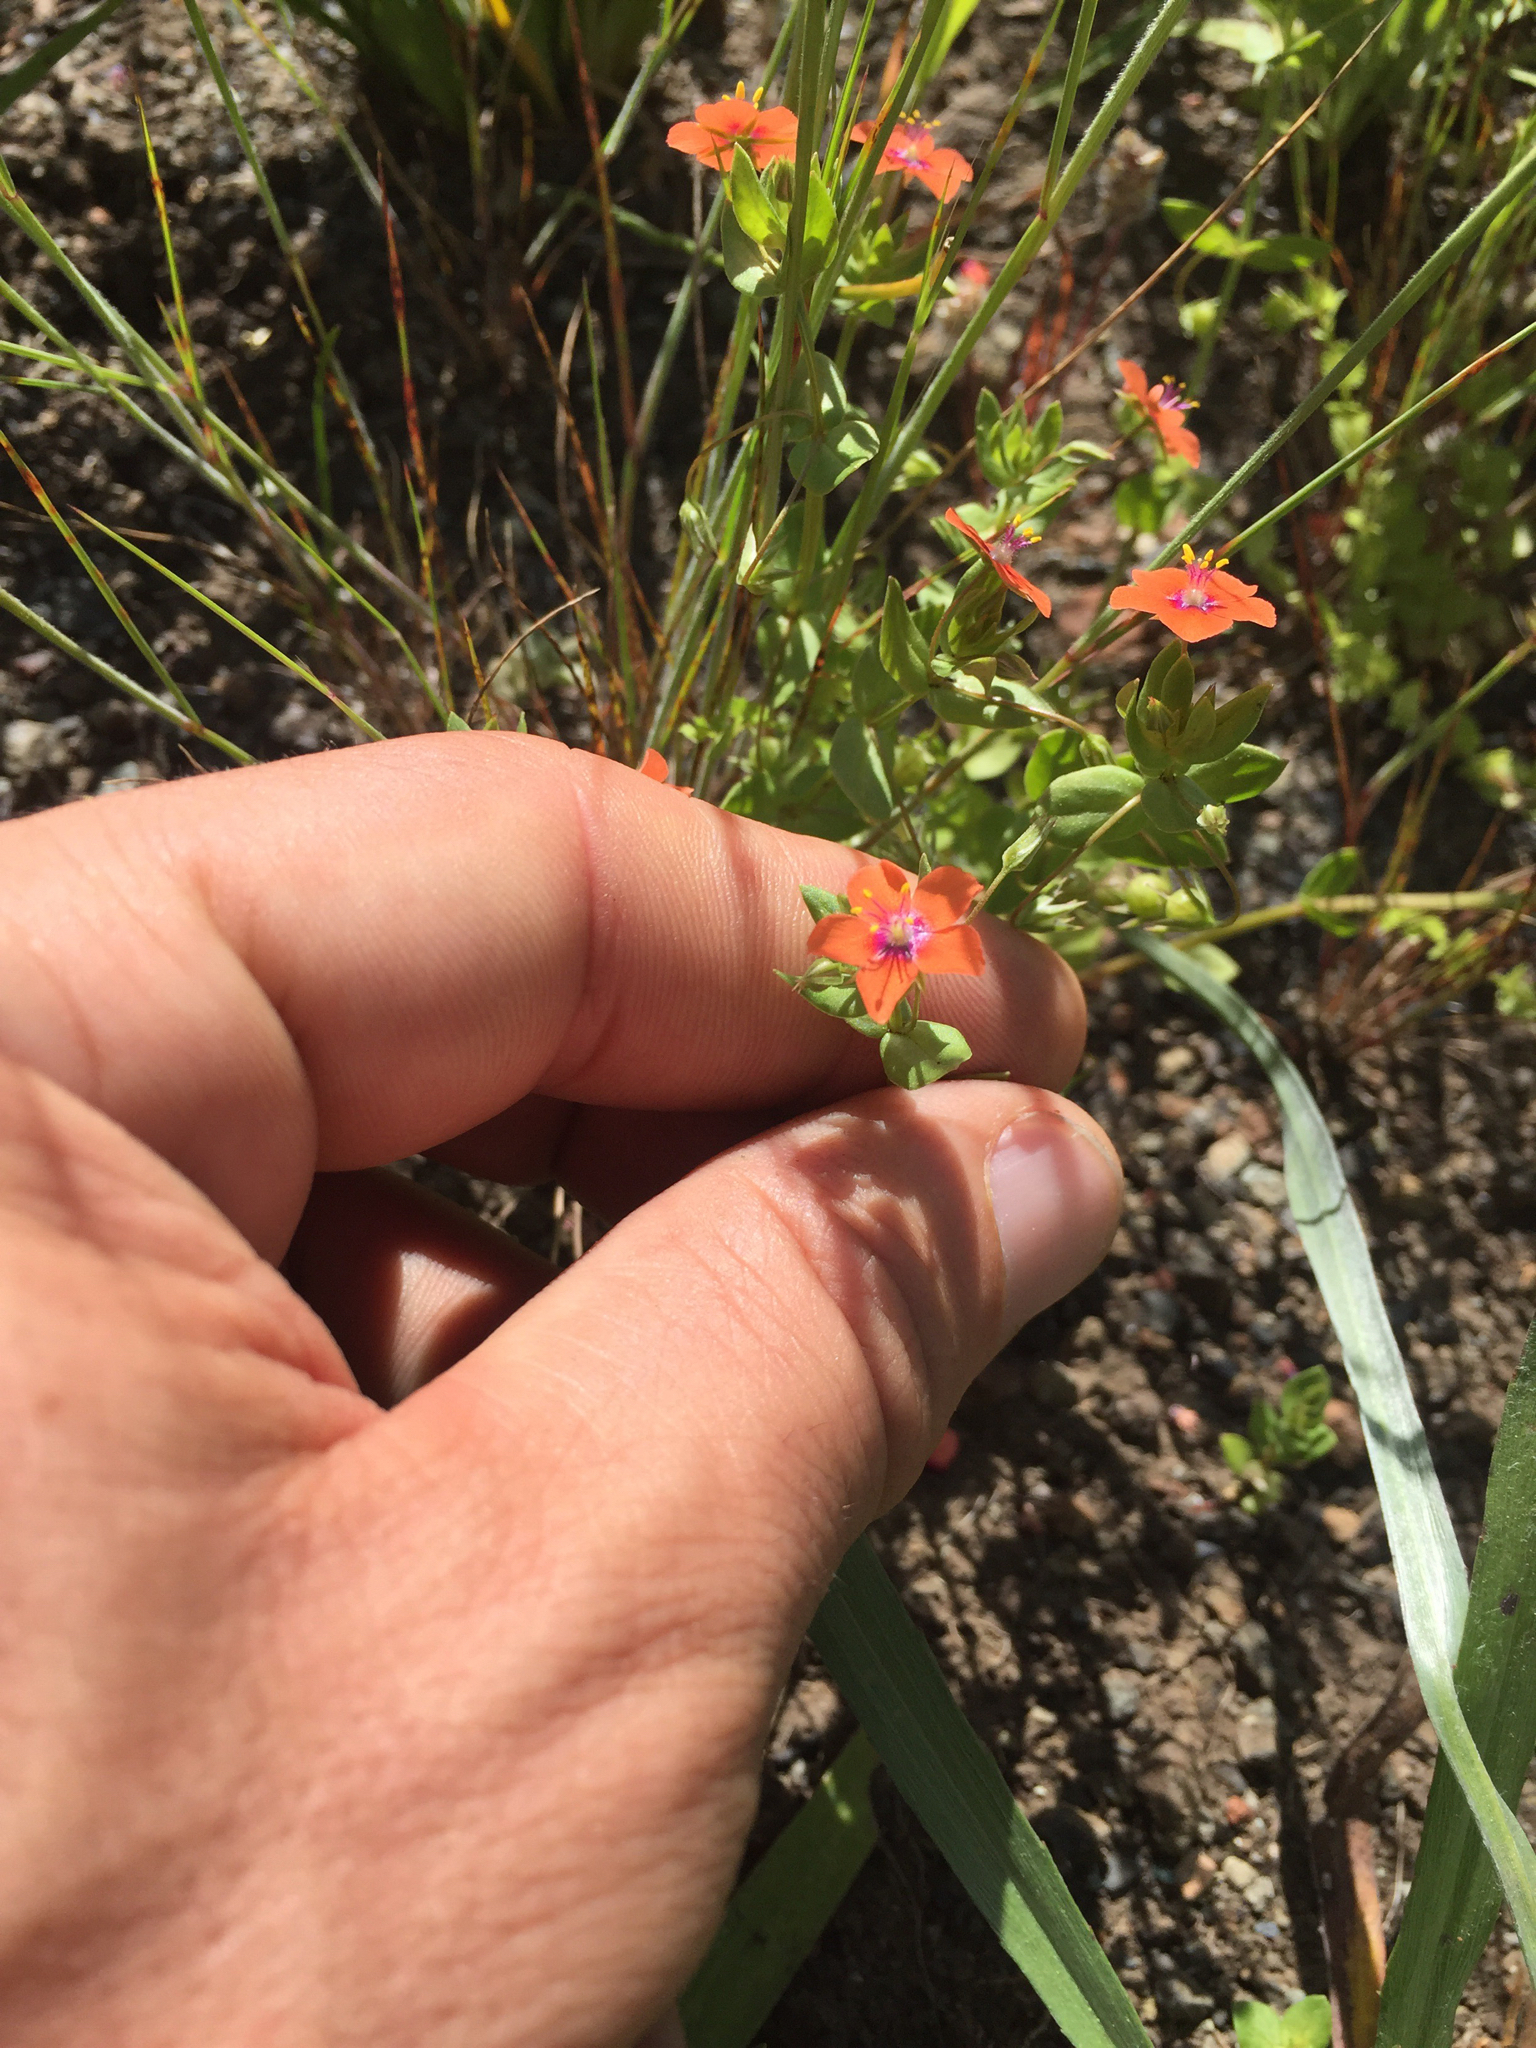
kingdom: Plantae
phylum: Tracheophyta
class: Magnoliopsida
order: Ericales
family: Primulaceae
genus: Lysimachia
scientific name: Lysimachia arvensis
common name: Scarlet pimpernel
